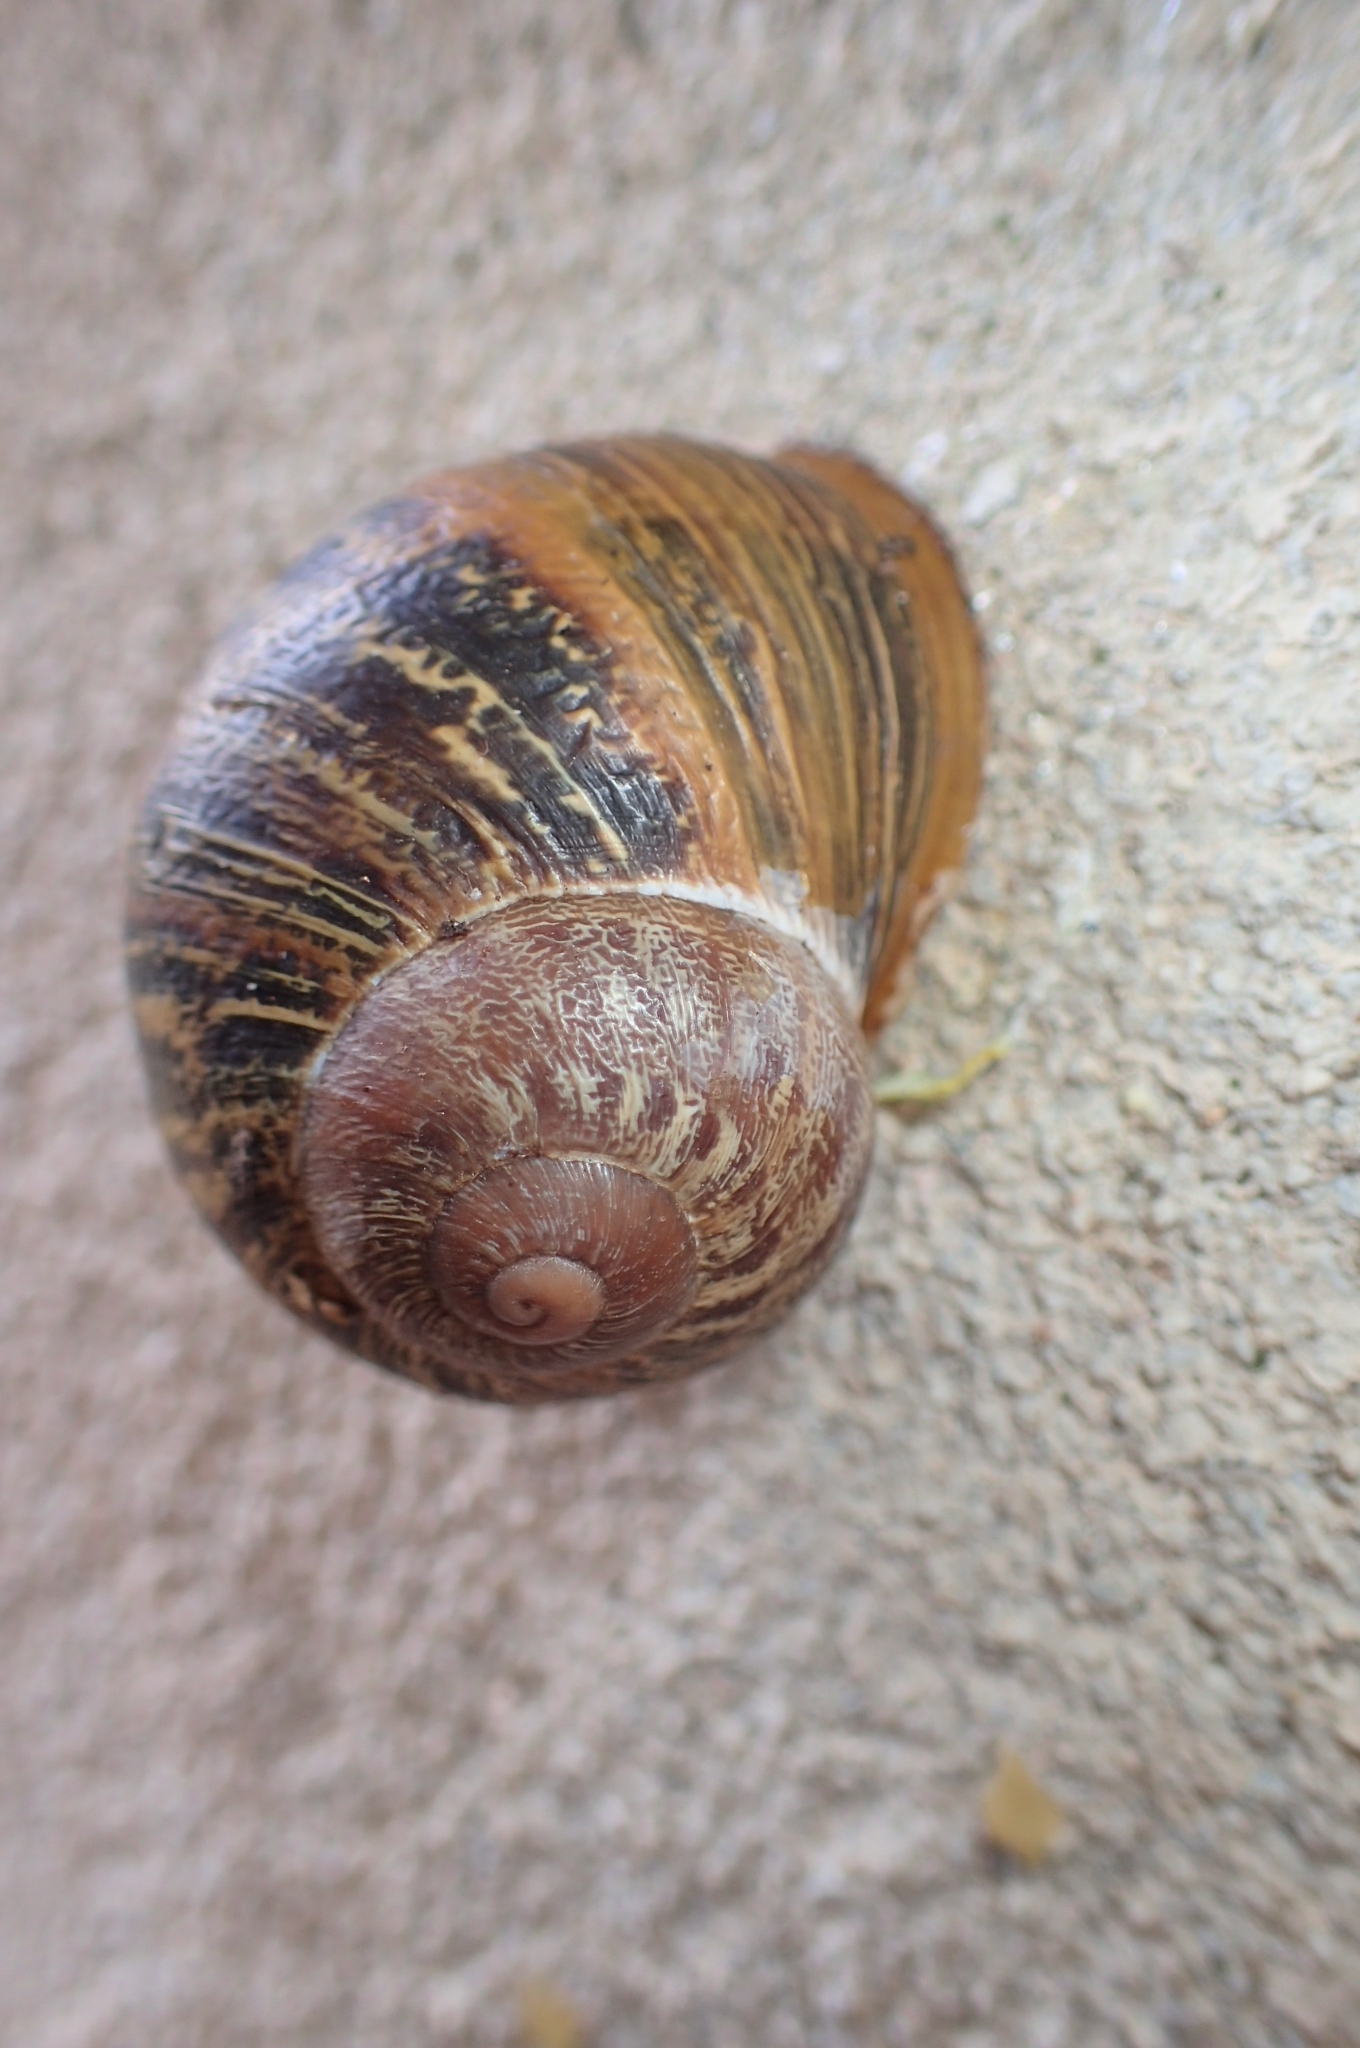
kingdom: Animalia
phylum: Mollusca
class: Gastropoda
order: Stylommatophora
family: Helicidae
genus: Cornu
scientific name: Cornu aspersum
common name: Brown garden snail
